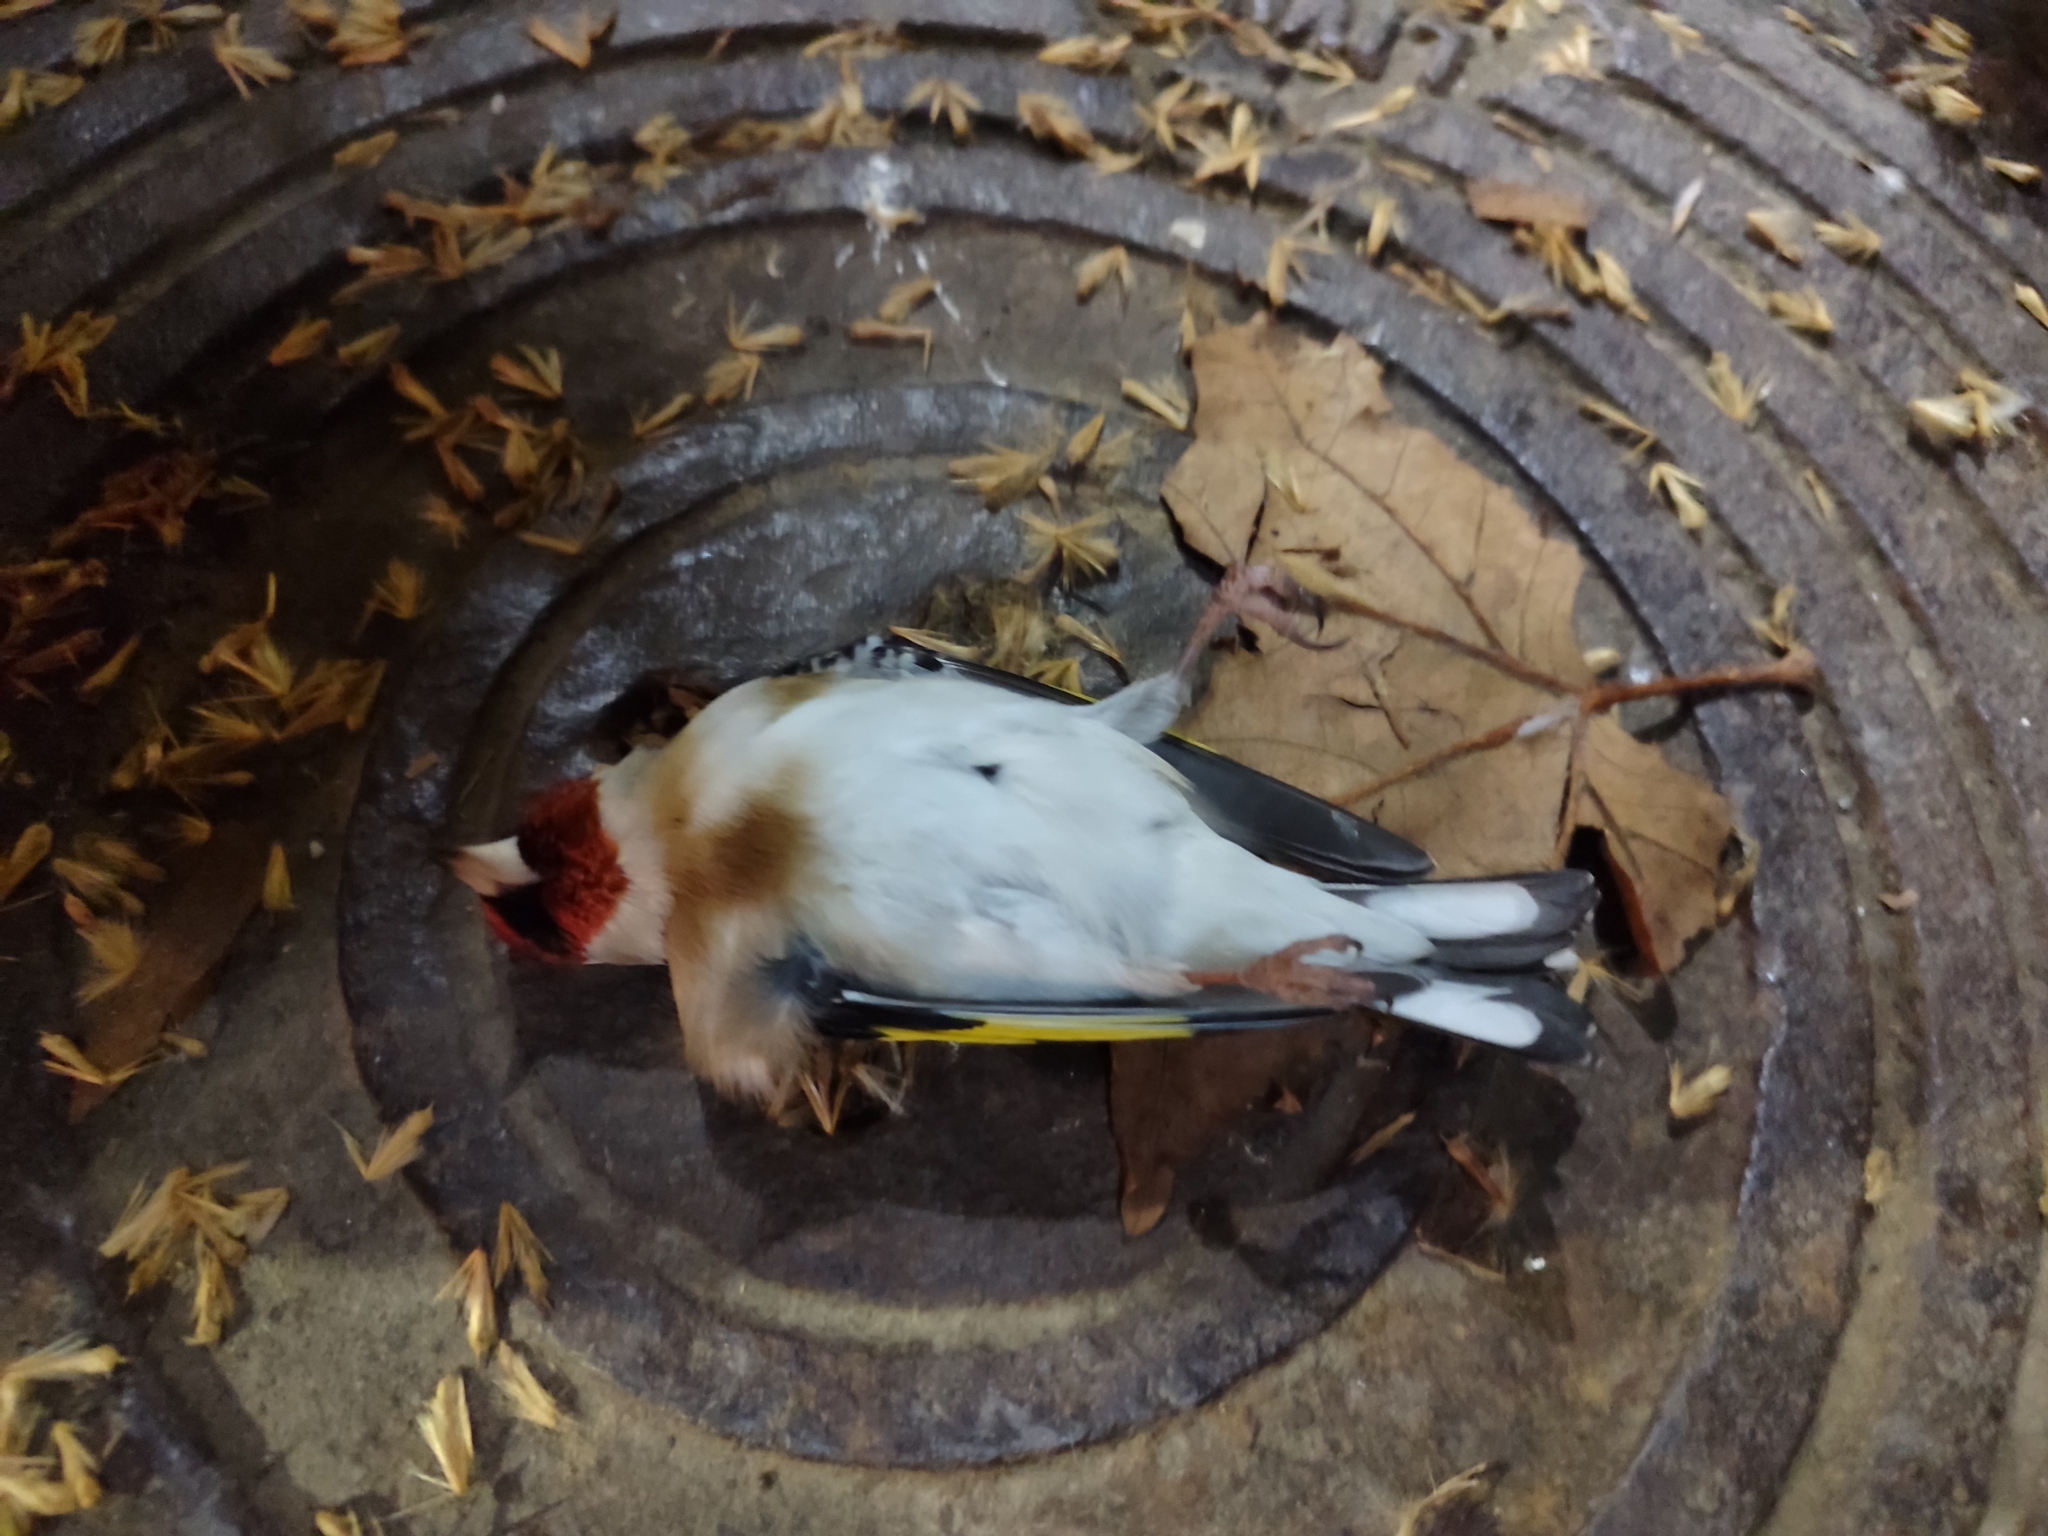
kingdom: Animalia
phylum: Chordata
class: Aves
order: Passeriformes
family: Fringillidae
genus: Carduelis
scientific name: Carduelis carduelis
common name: European goldfinch
